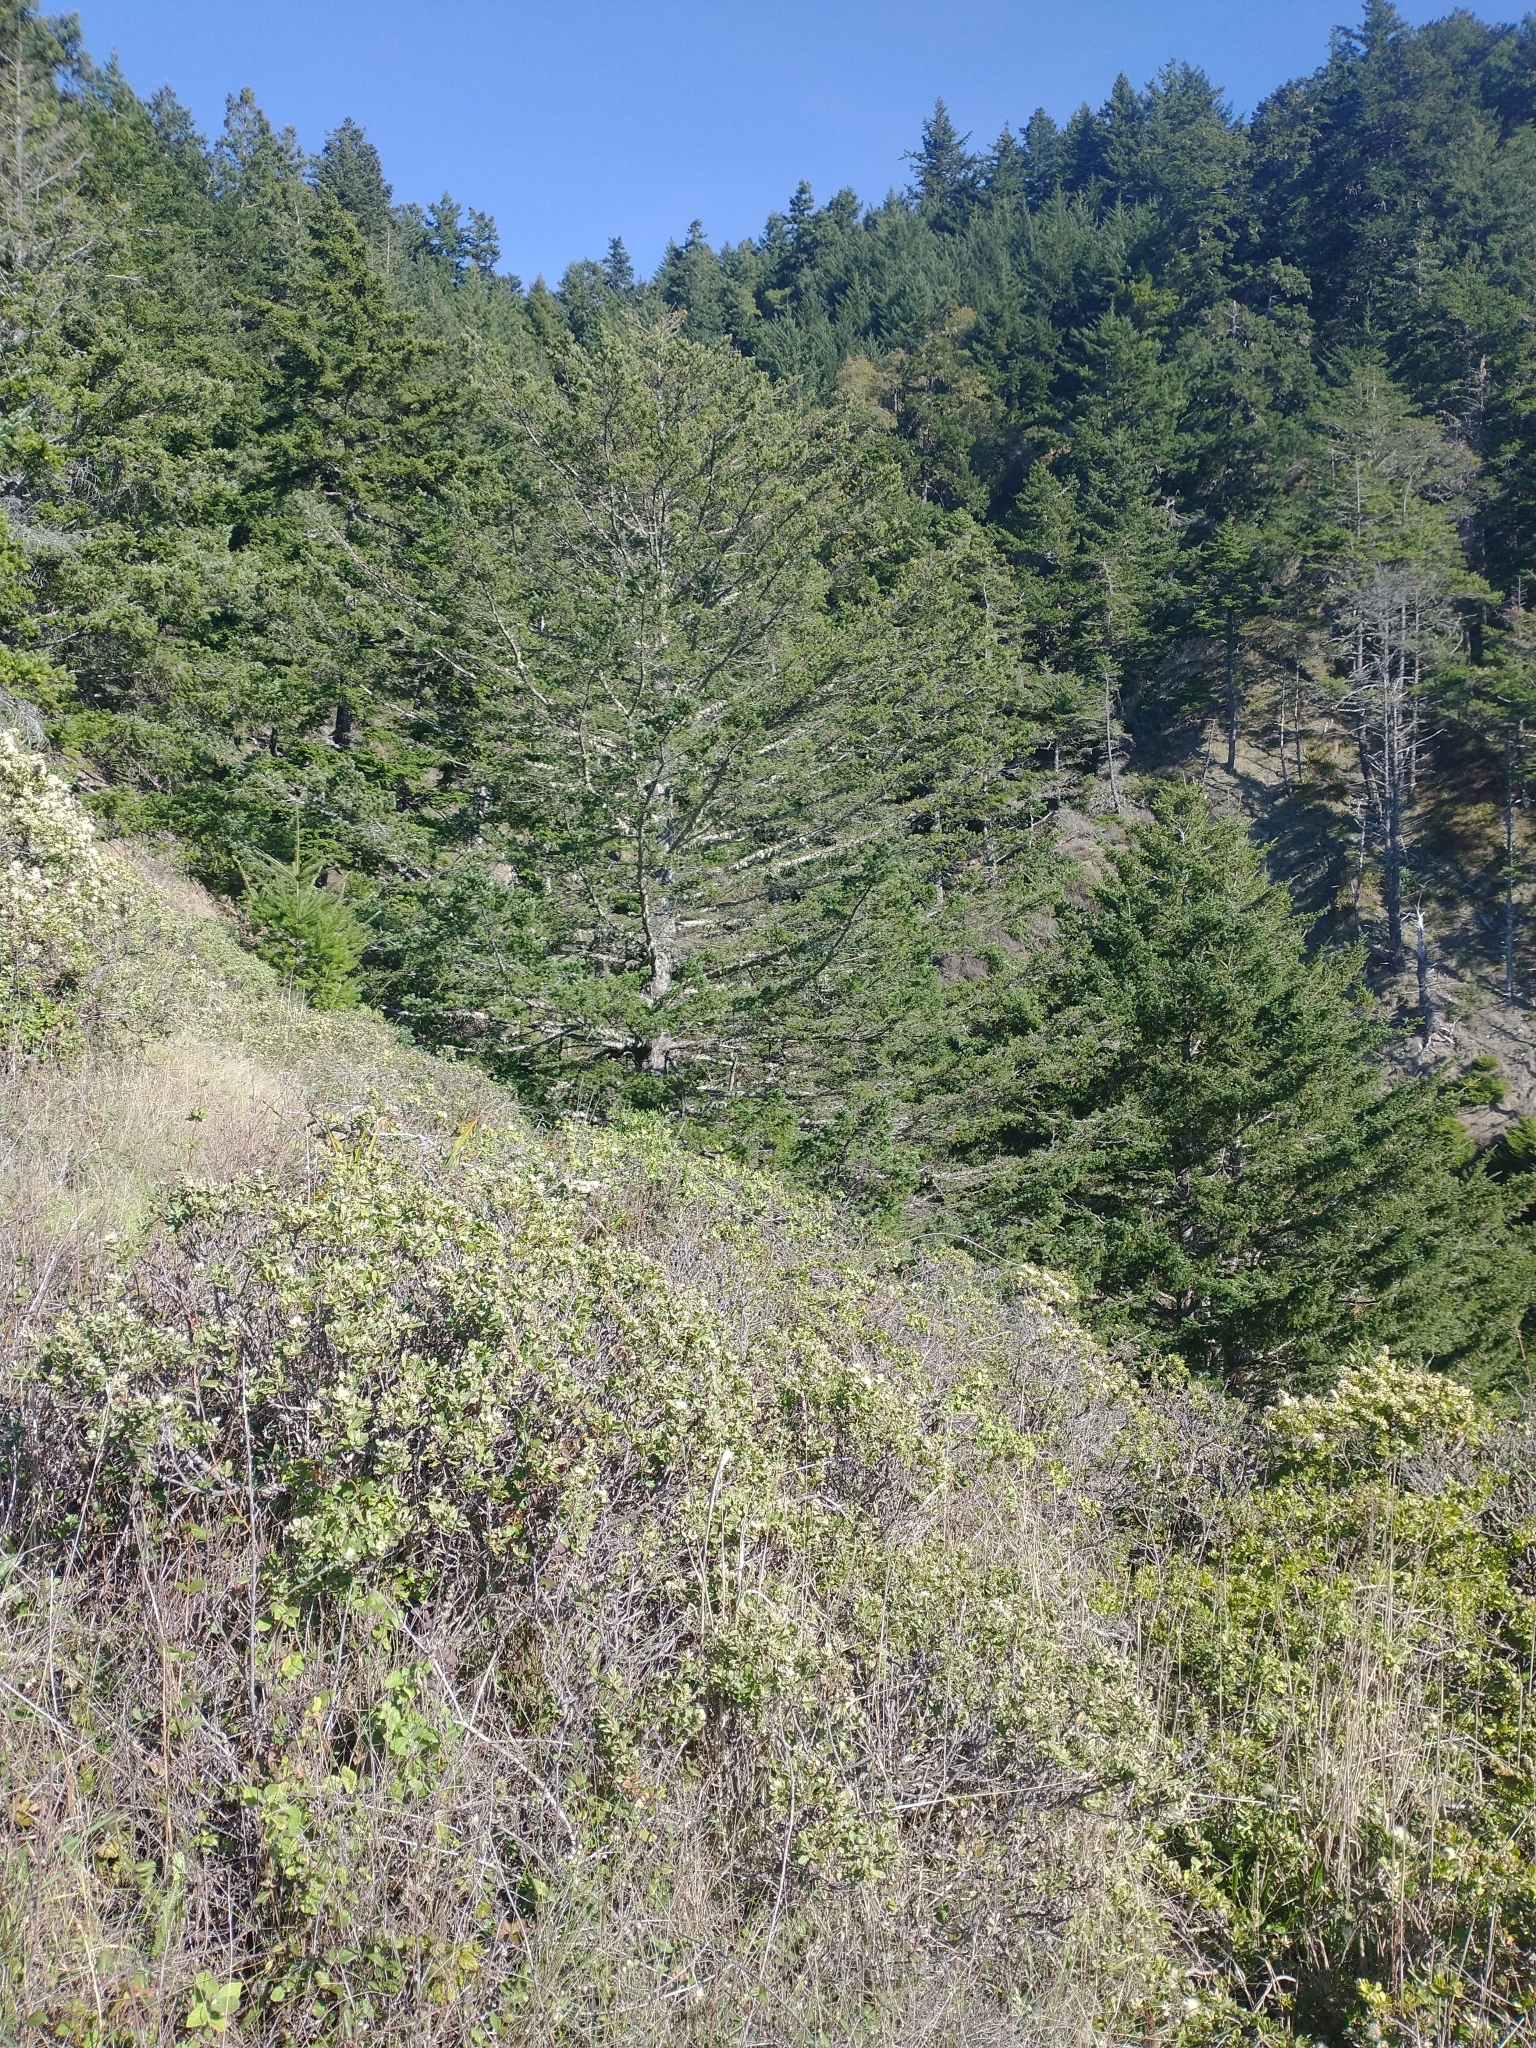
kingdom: Plantae
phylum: Tracheophyta
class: Pinopsida
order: Pinales
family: Pinaceae
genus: Pseudotsuga
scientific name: Pseudotsuga menziesii
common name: Douglas fir
